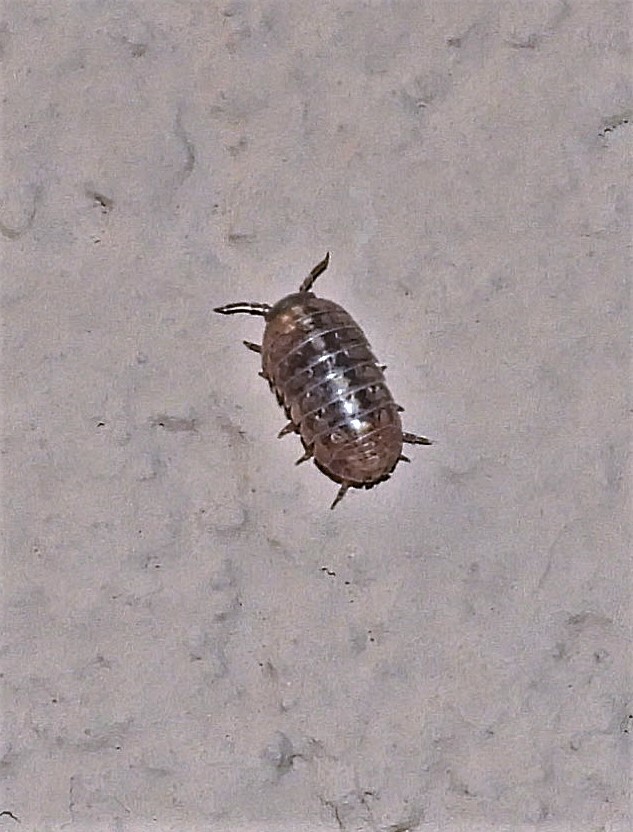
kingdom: Animalia
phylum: Arthropoda
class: Malacostraca
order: Isopoda
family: Armadillidiidae
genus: Armadillidium
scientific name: Armadillidium vulgare
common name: Common pill woodlouse
